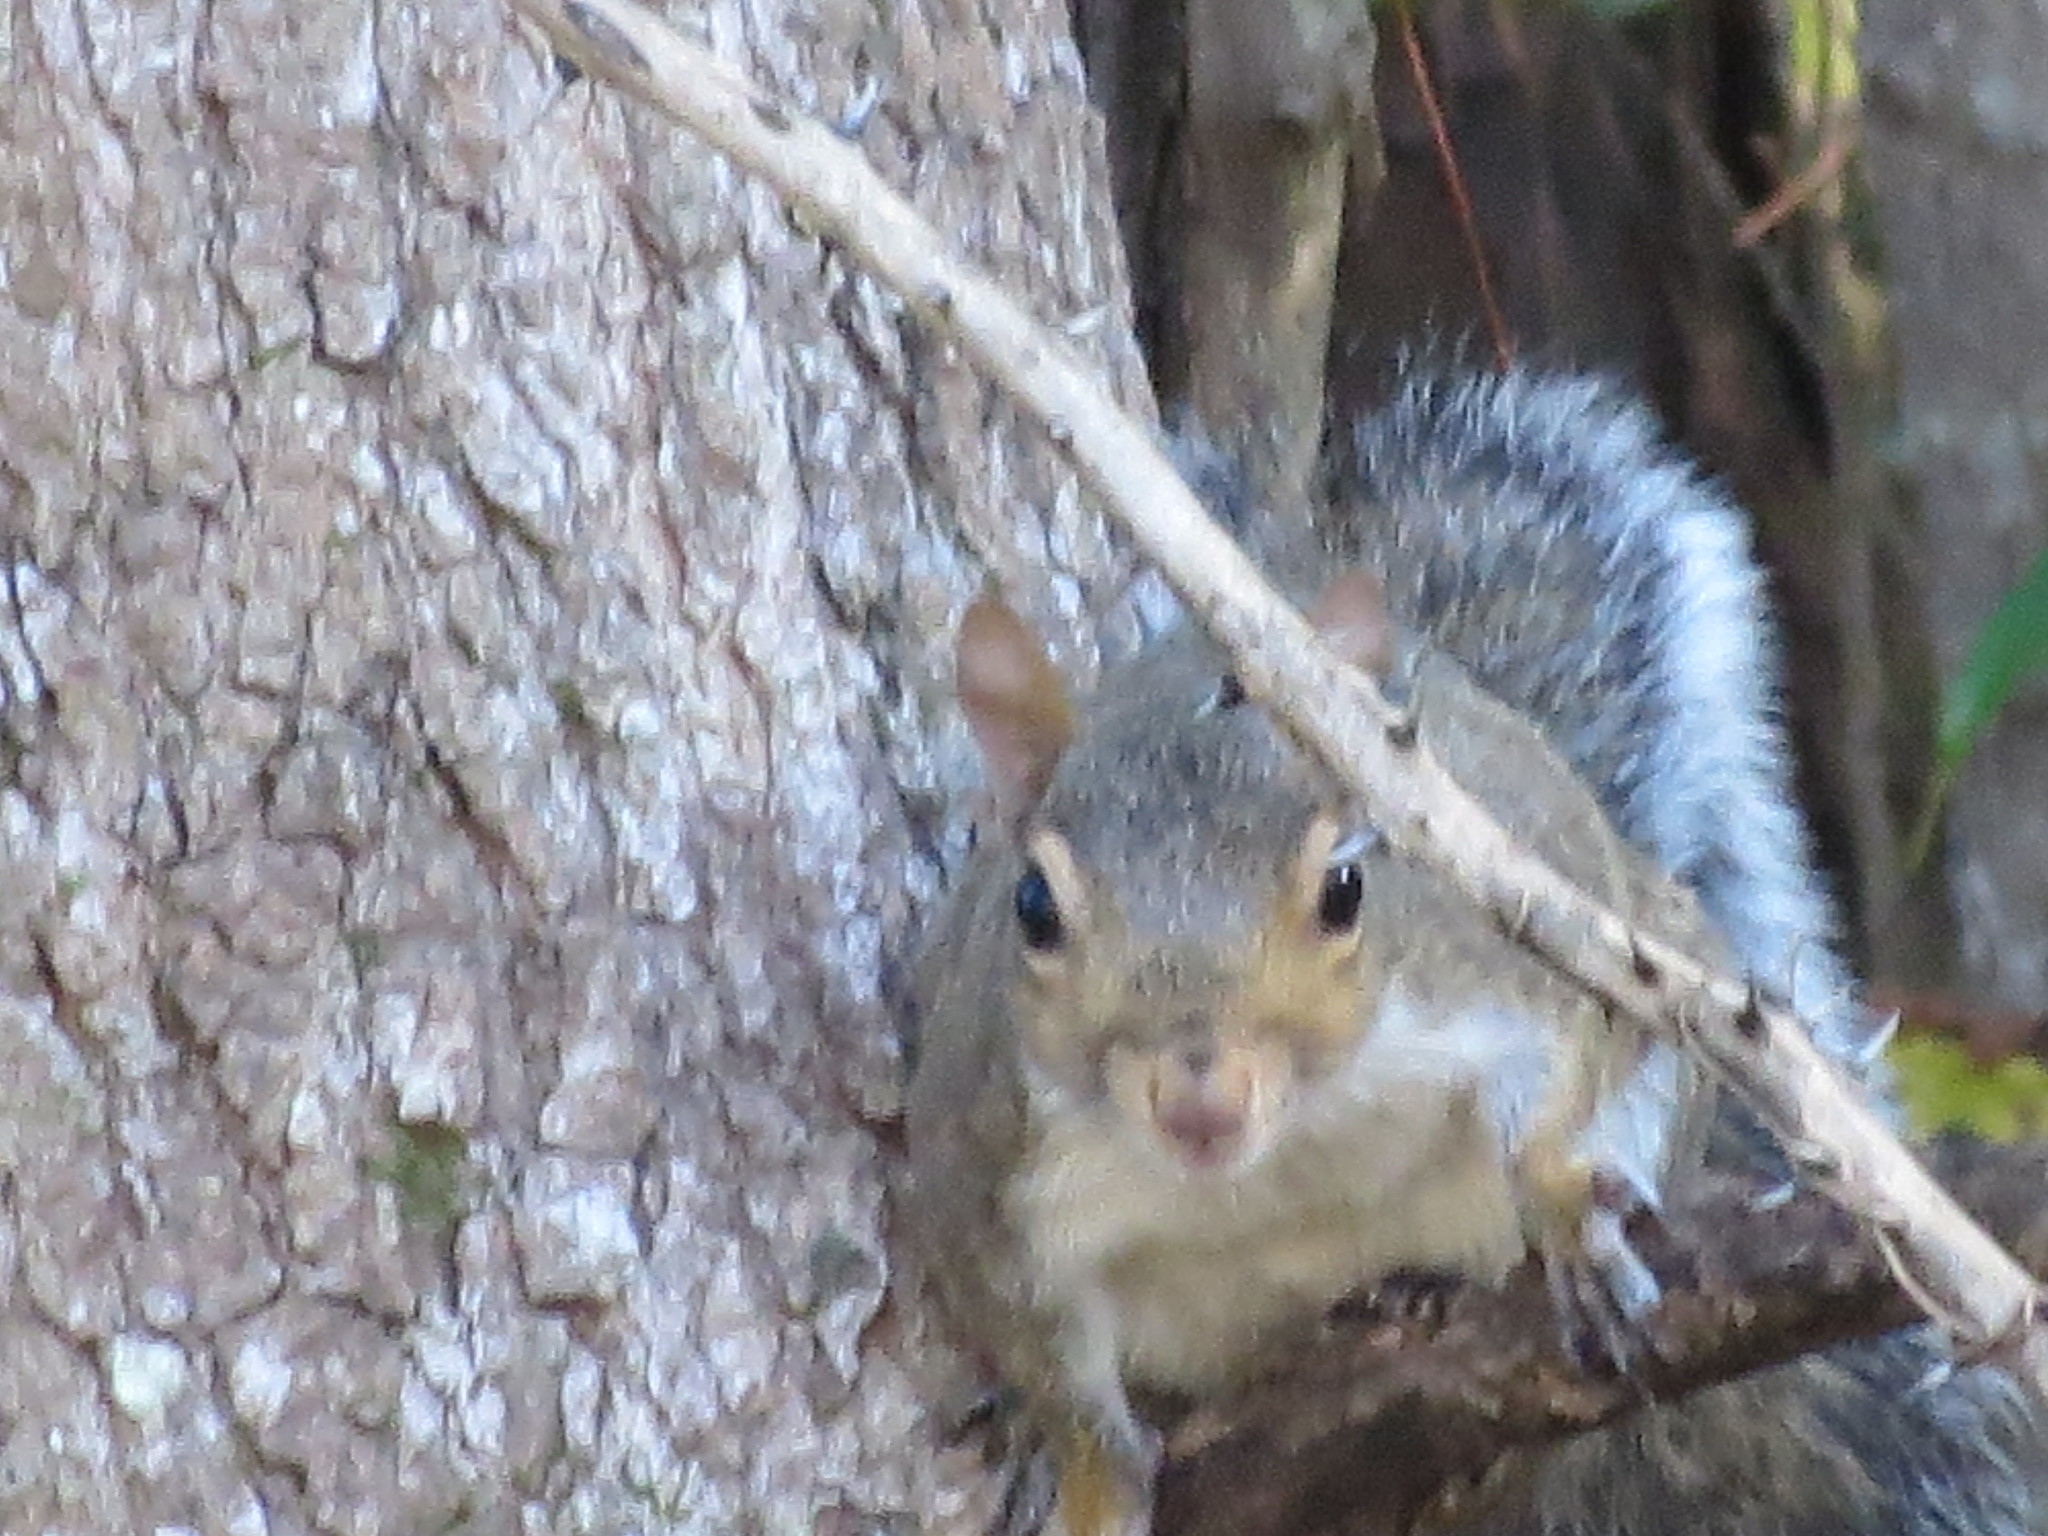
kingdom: Animalia
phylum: Chordata
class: Mammalia
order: Rodentia
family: Sciuridae
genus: Sciurus
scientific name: Sciurus carolinensis
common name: Eastern gray squirrel
